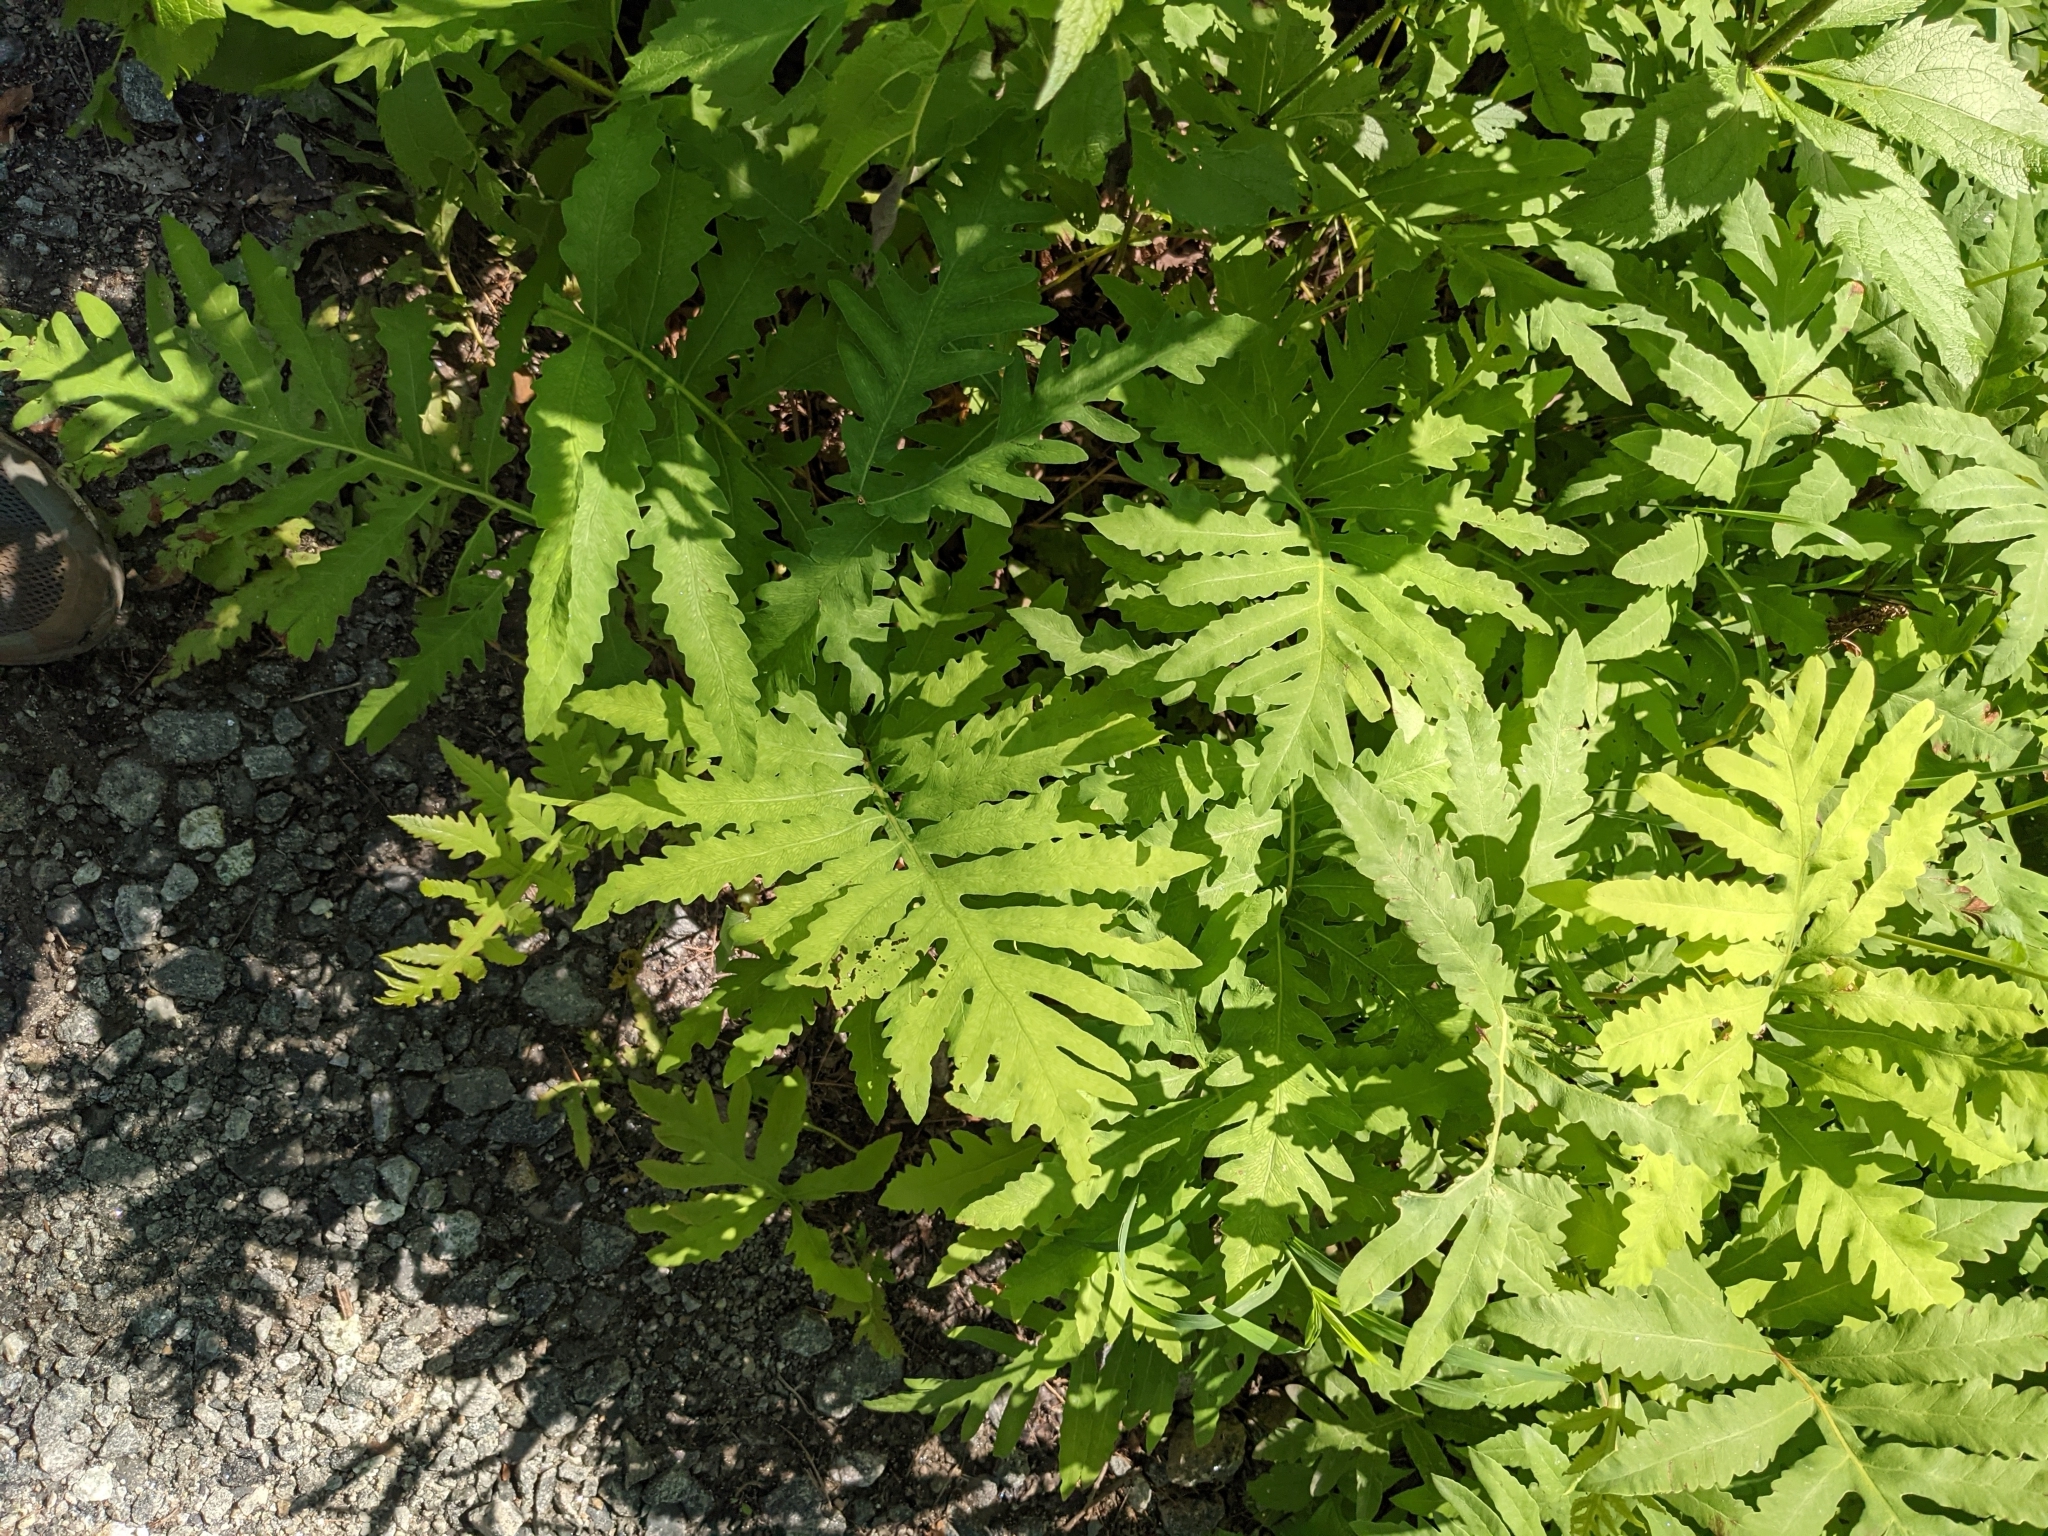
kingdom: Plantae
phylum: Tracheophyta
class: Polypodiopsida
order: Polypodiales
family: Onocleaceae
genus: Onoclea
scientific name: Onoclea sensibilis
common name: Sensitive fern
